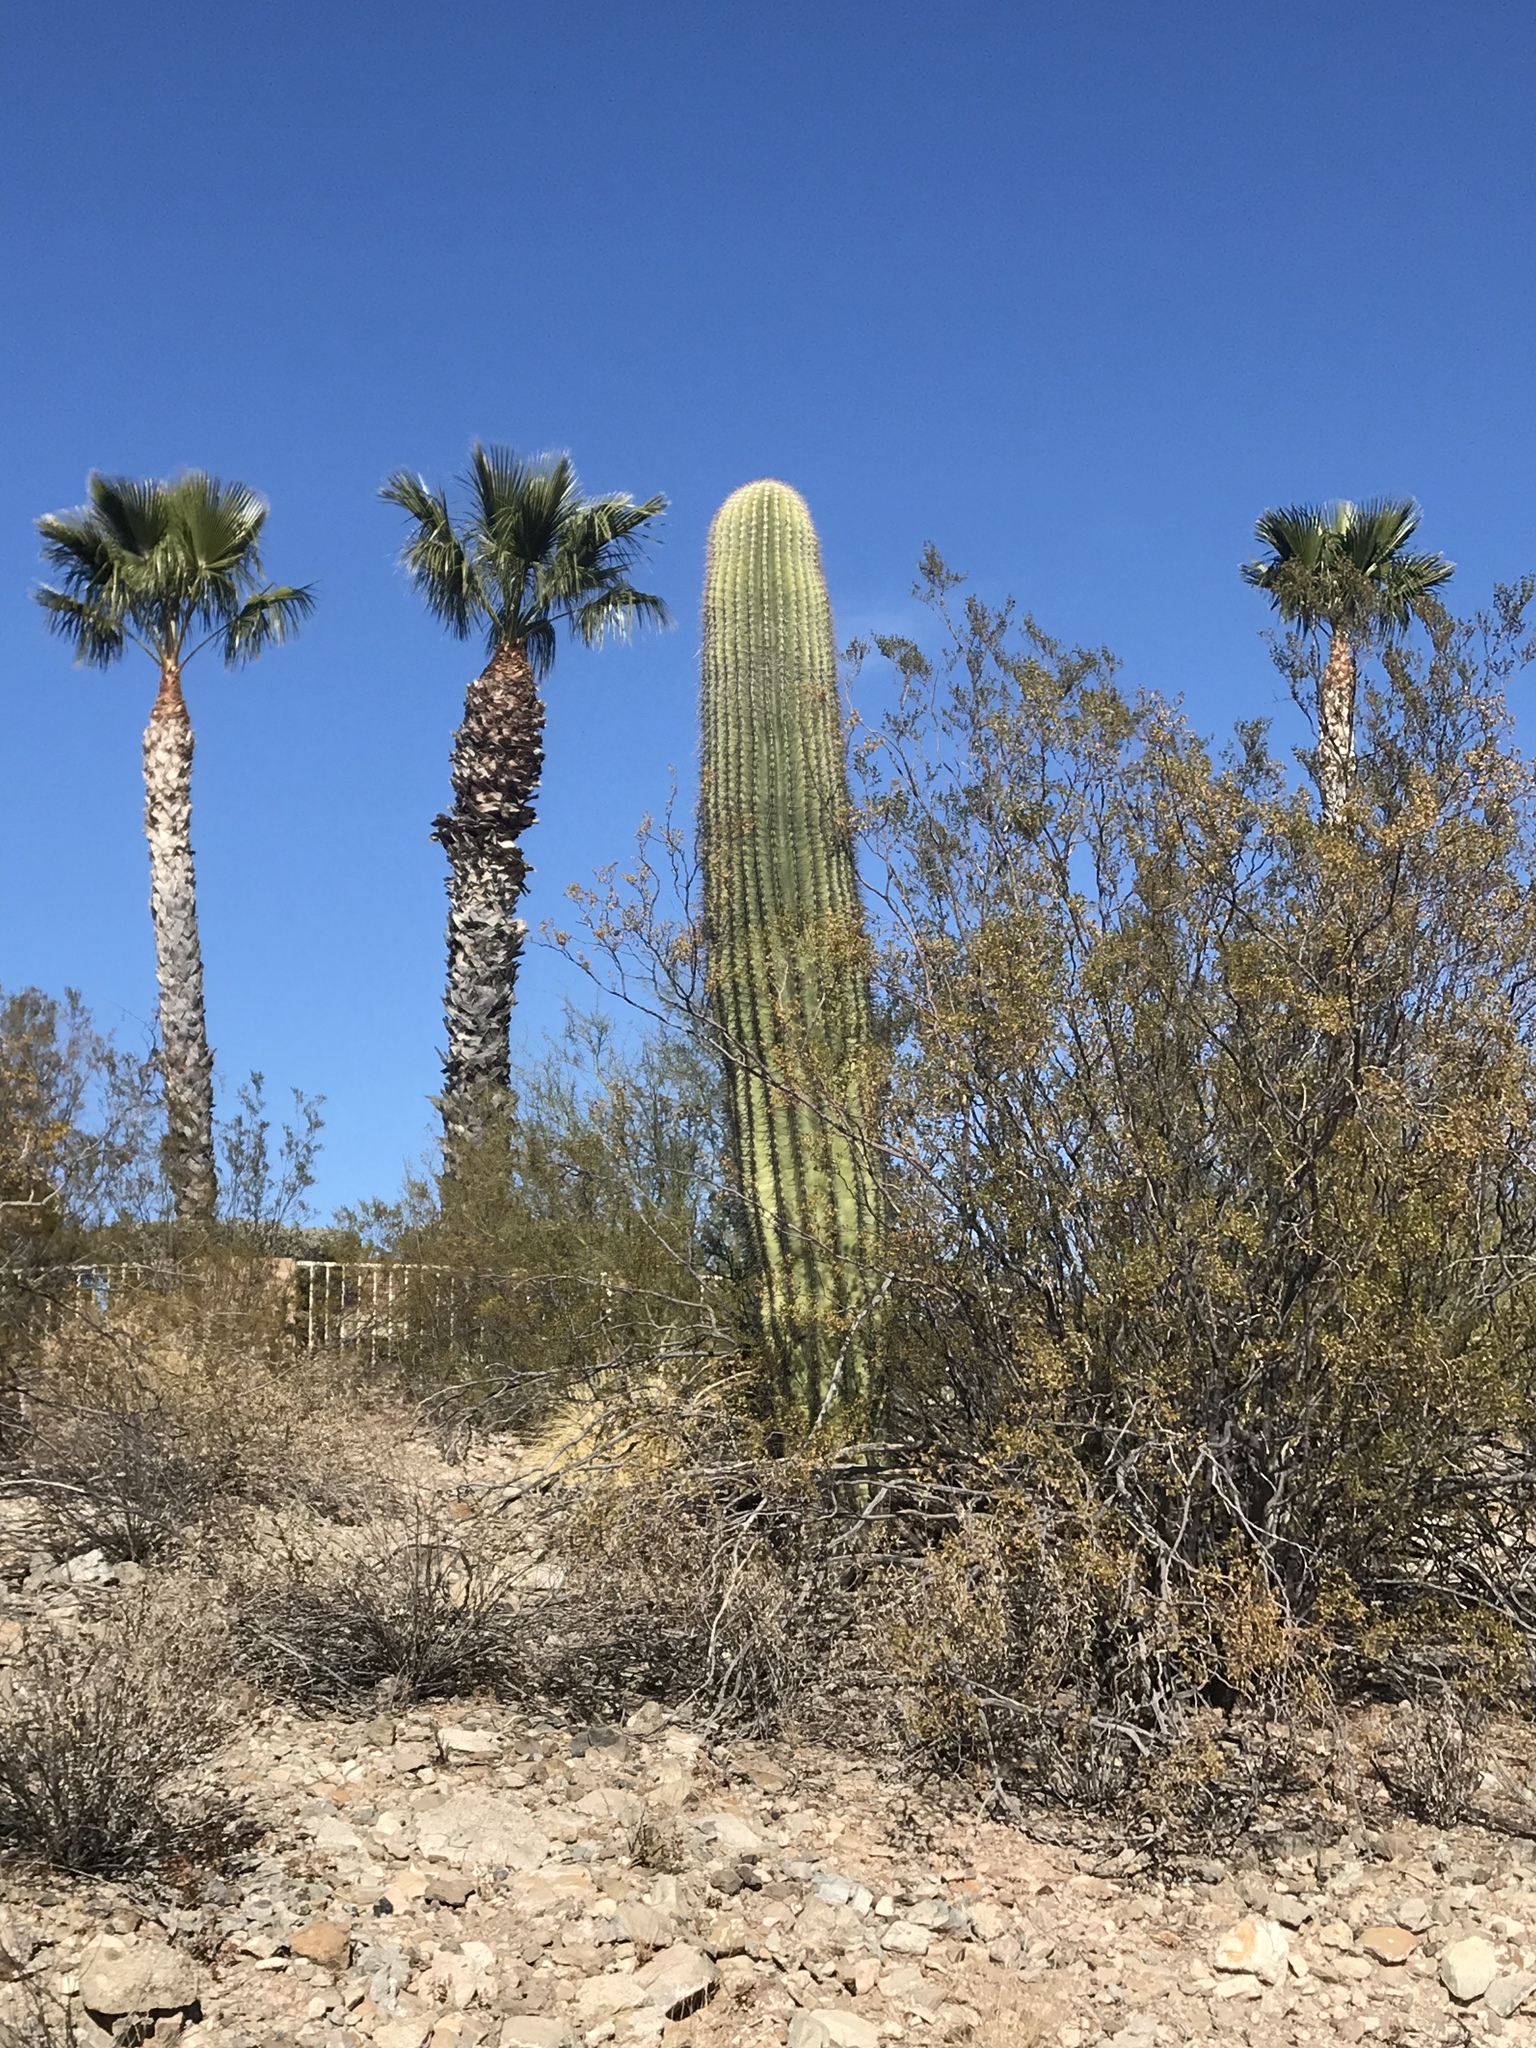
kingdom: Plantae
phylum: Tracheophyta
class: Magnoliopsida
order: Caryophyllales
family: Cactaceae
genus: Carnegiea
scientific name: Carnegiea gigantea
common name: Saguaro
